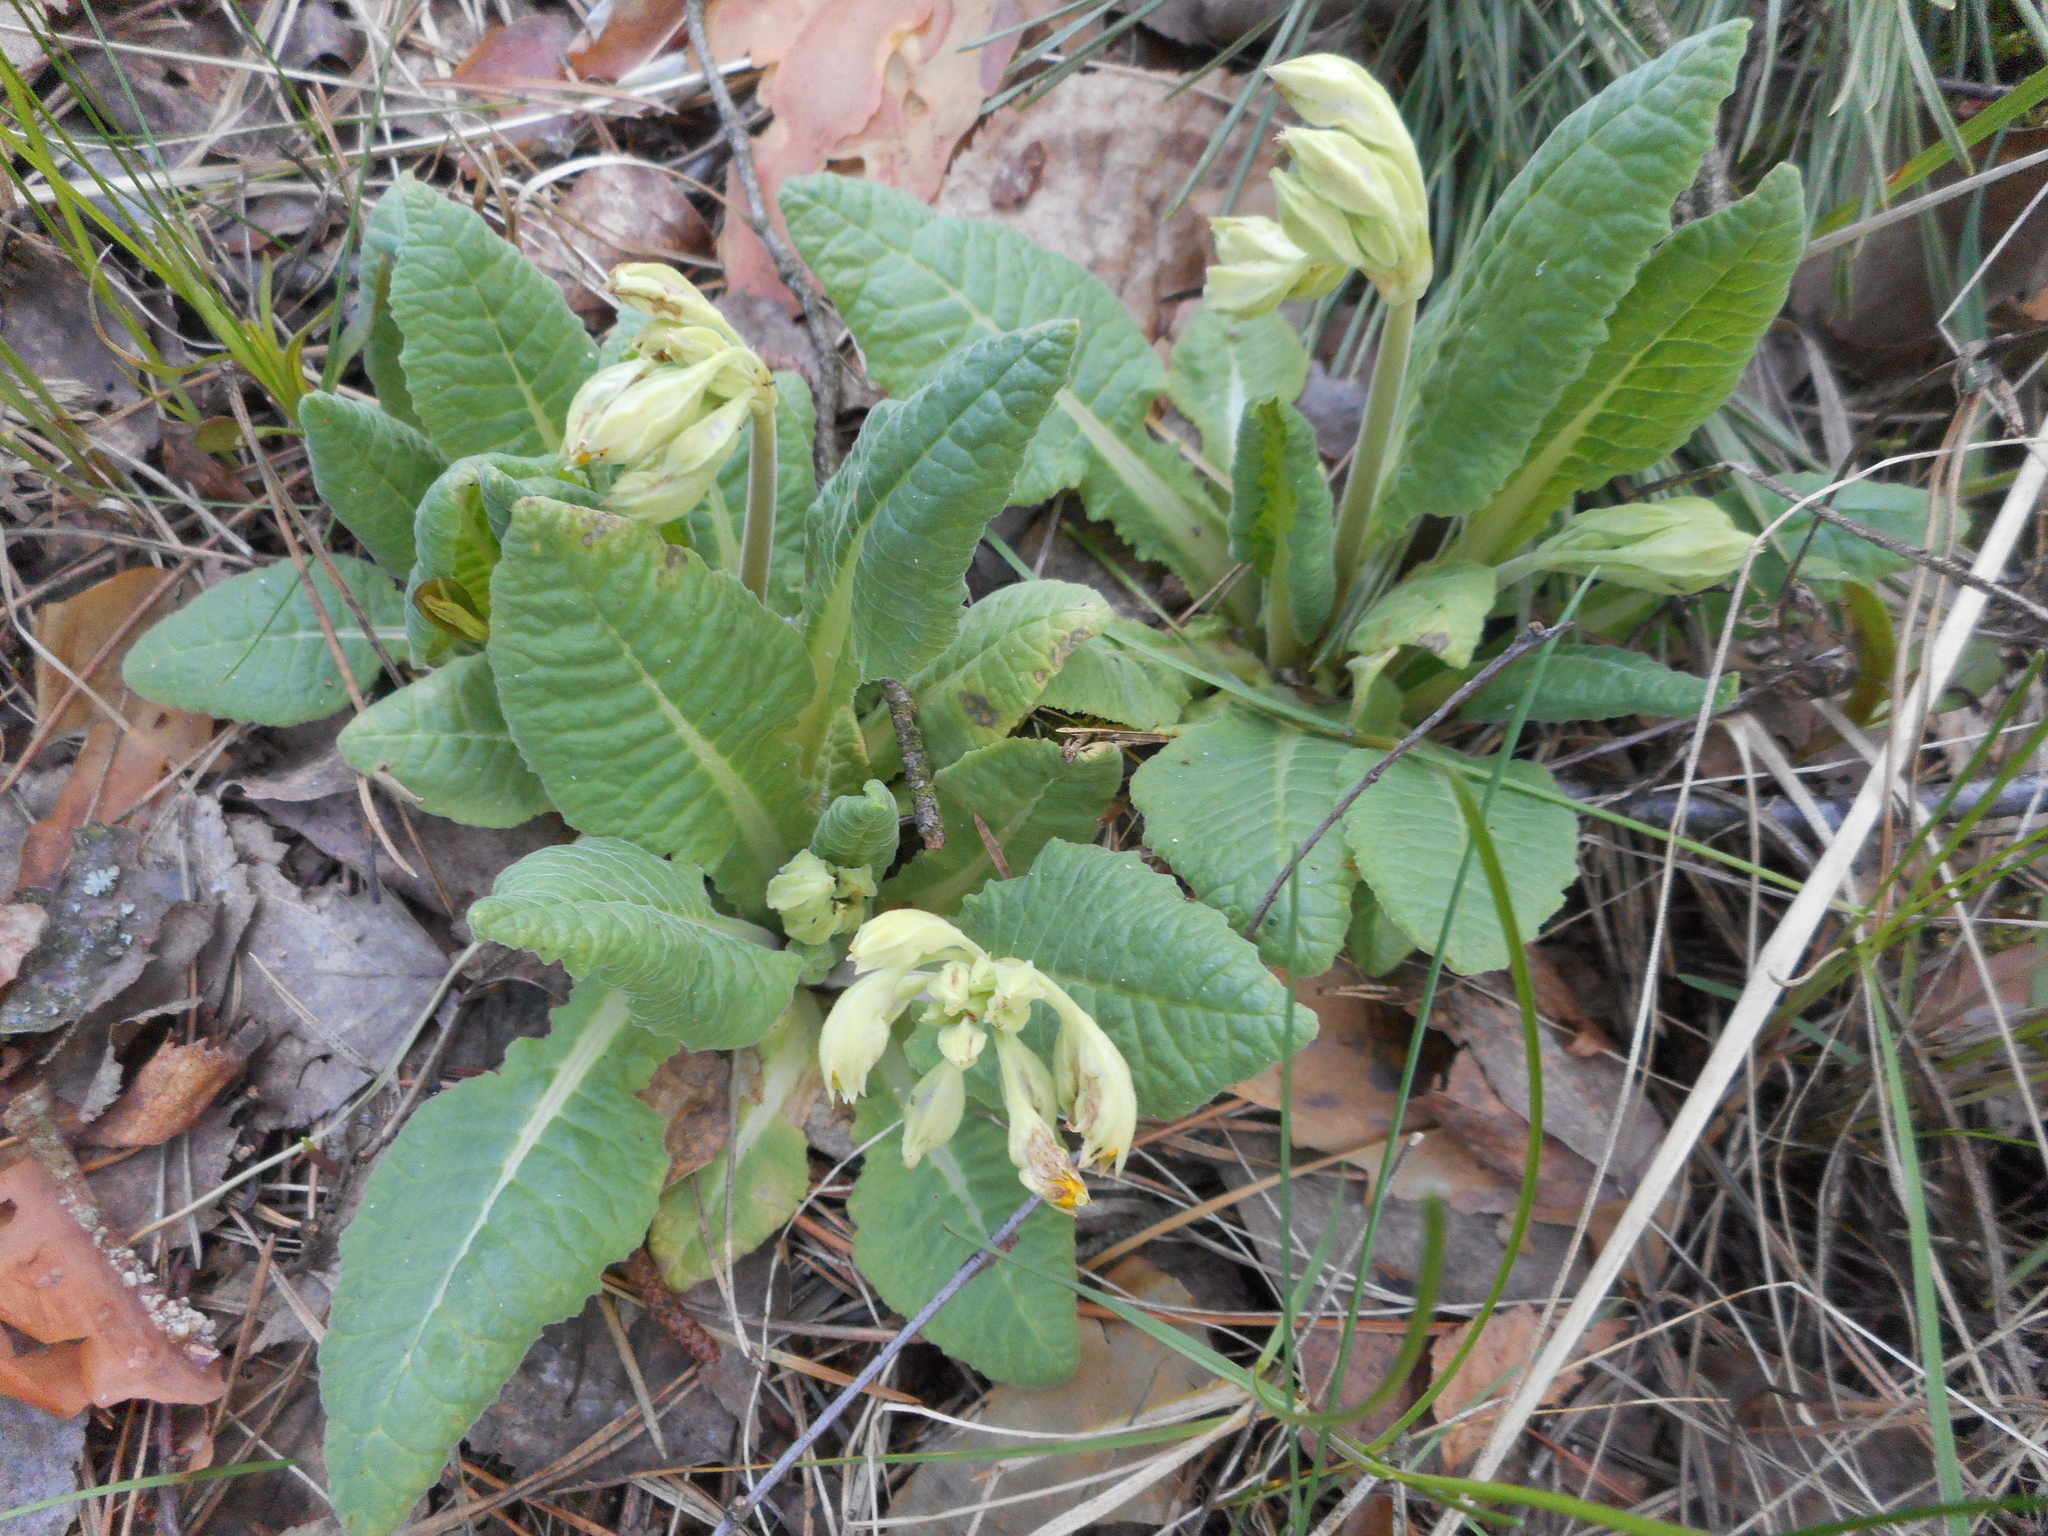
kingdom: Plantae
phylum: Tracheophyta
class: Magnoliopsida
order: Ericales
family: Primulaceae
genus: Primula
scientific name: Primula veris
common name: Cowslip
